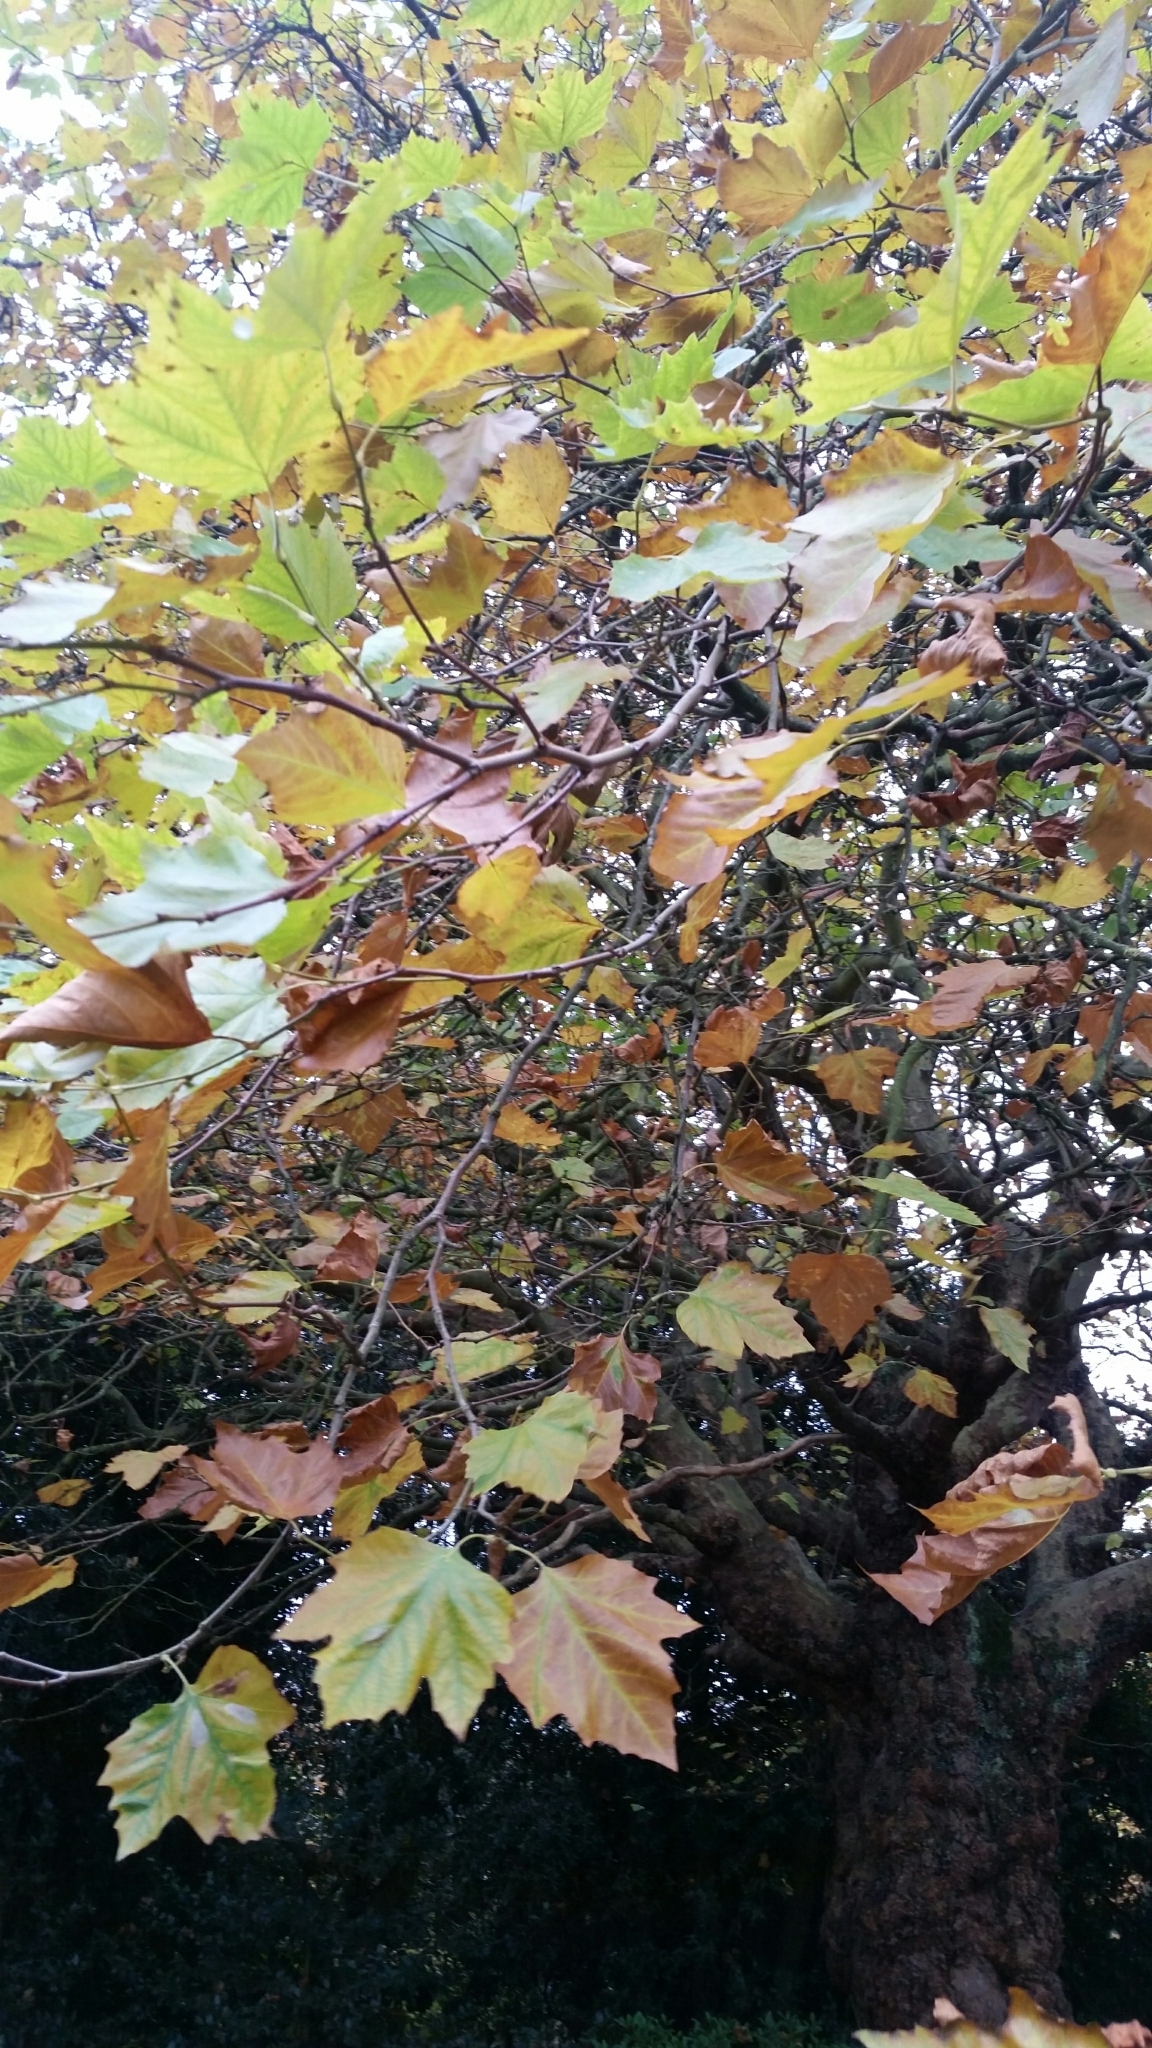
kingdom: Plantae
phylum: Tracheophyta
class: Magnoliopsida
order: Proteales
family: Platanaceae
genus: Platanus
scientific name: Platanus hispanica
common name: London plane
